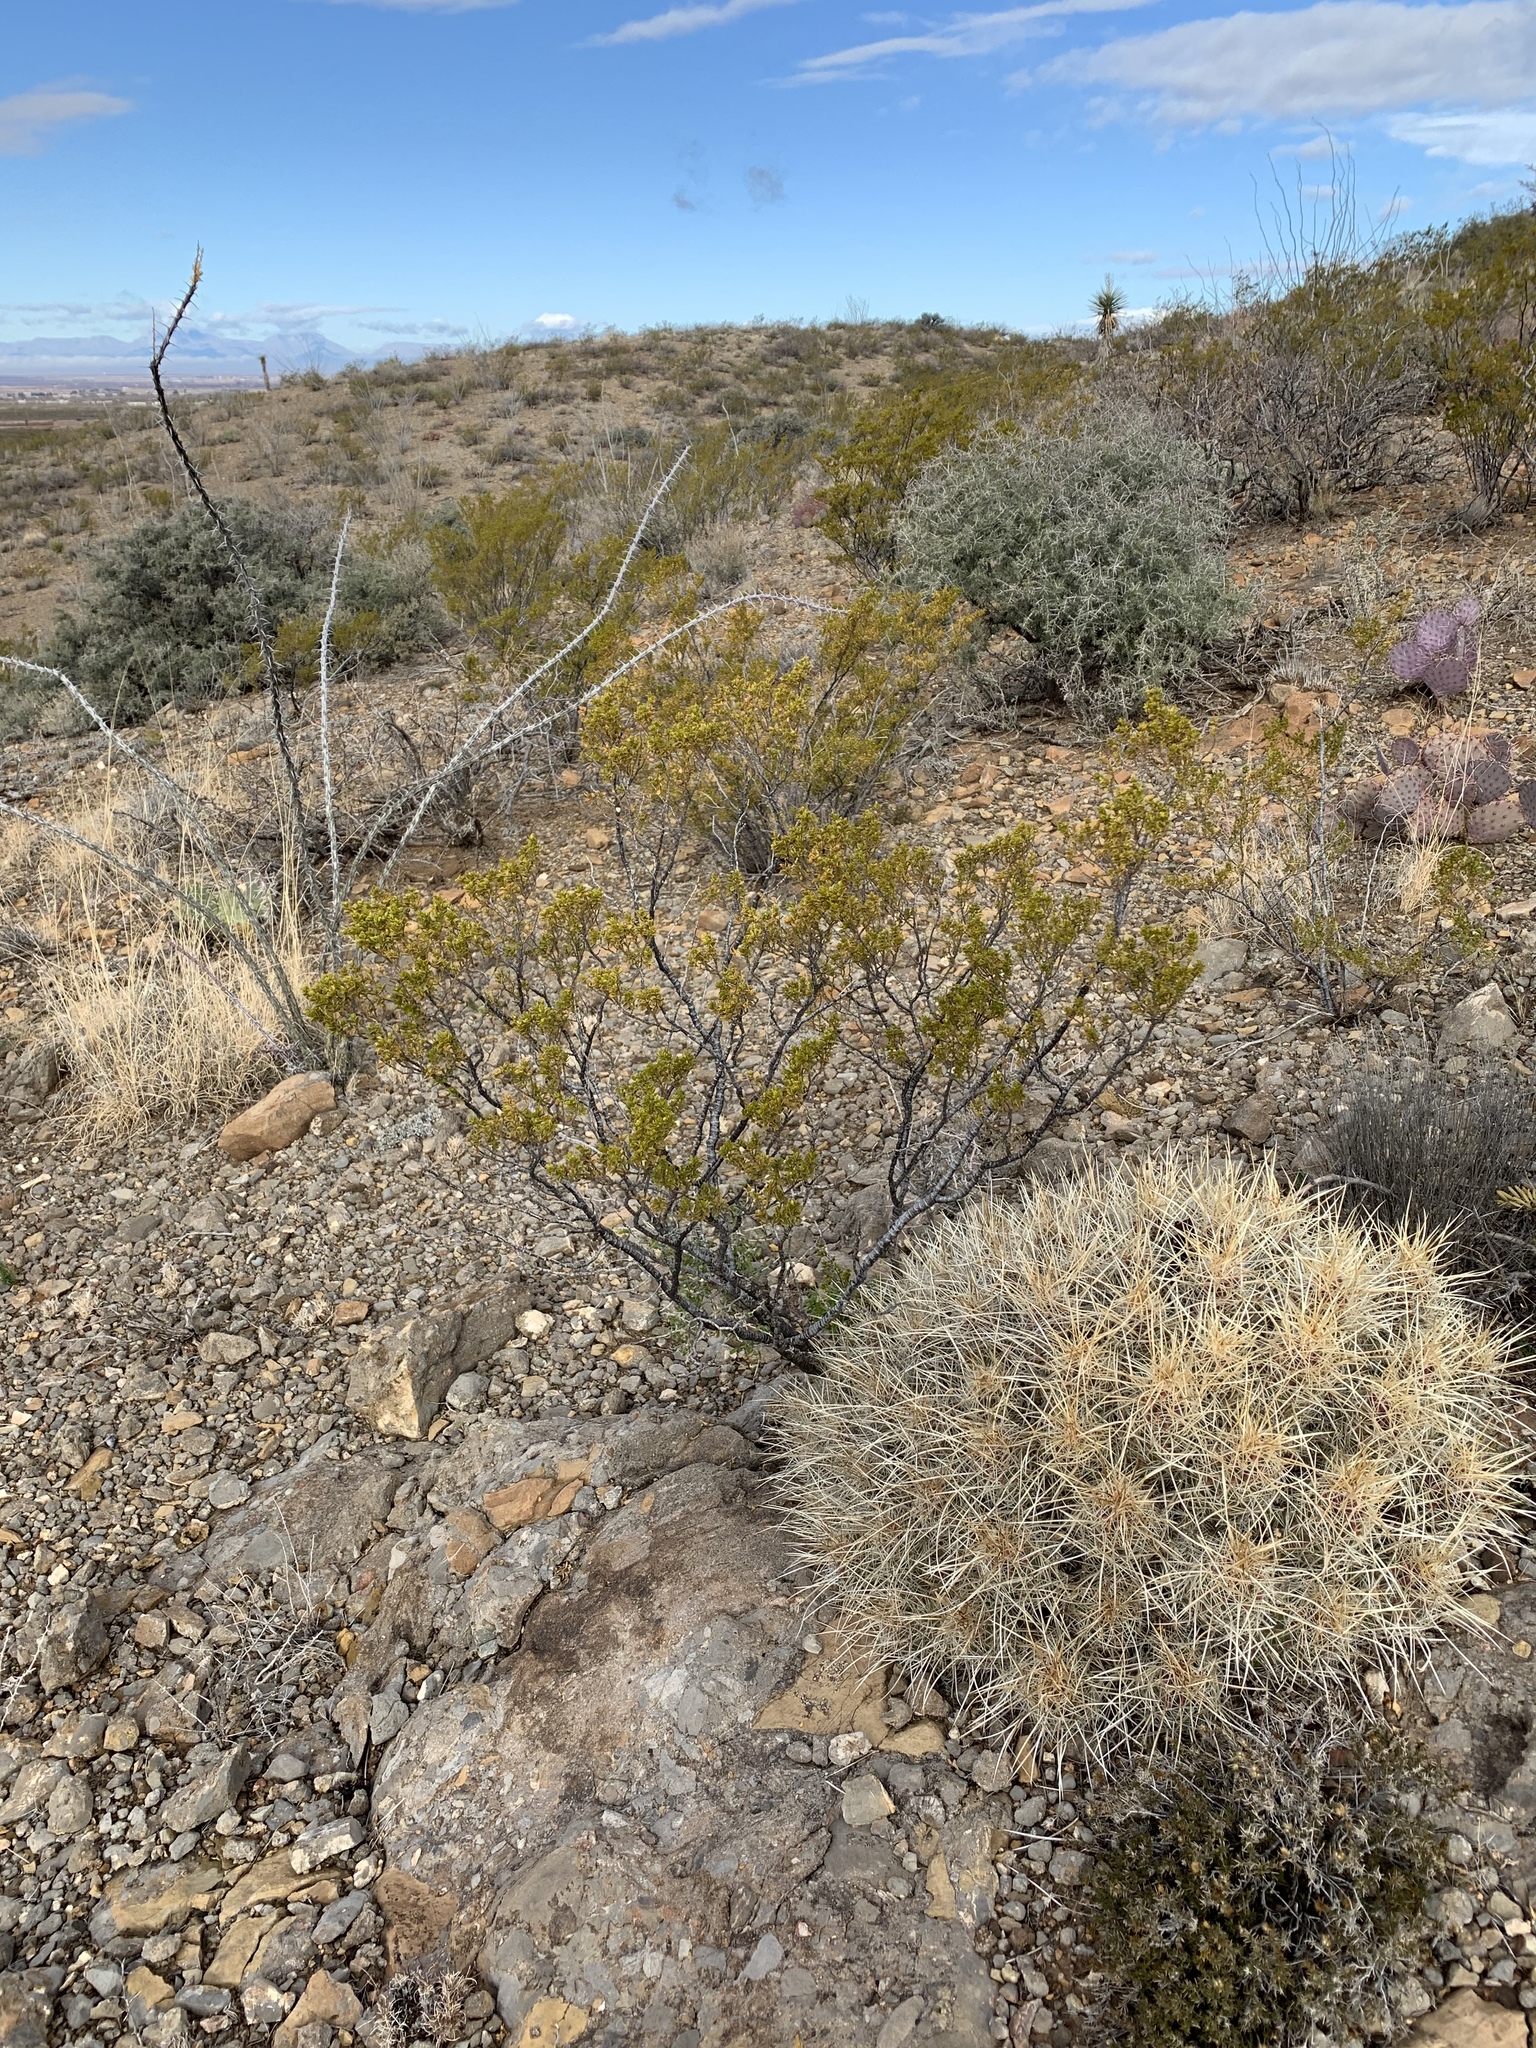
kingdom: Plantae
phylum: Tracheophyta
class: Magnoliopsida
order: Zygophyllales
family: Zygophyllaceae
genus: Larrea
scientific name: Larrea tridentata
